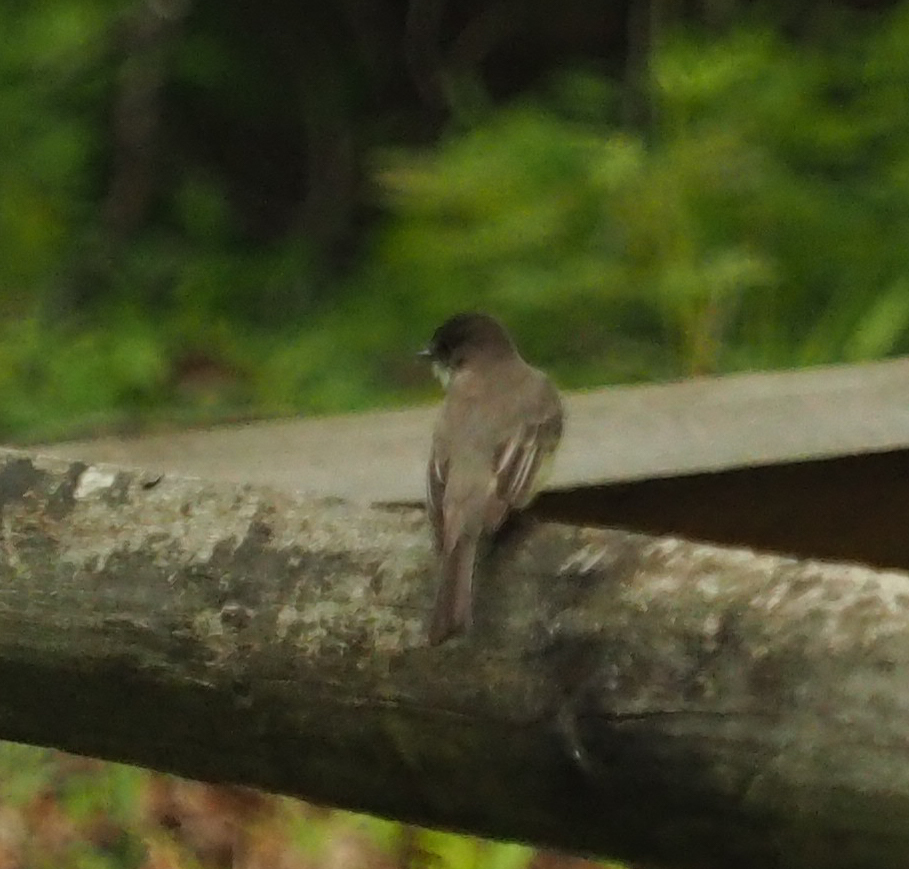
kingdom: Animalia
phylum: Chordata
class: Aves
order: Passeriformes
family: Tyrannidae
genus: Sayornis
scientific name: Sayornis phoebe
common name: Eastern phoebe
